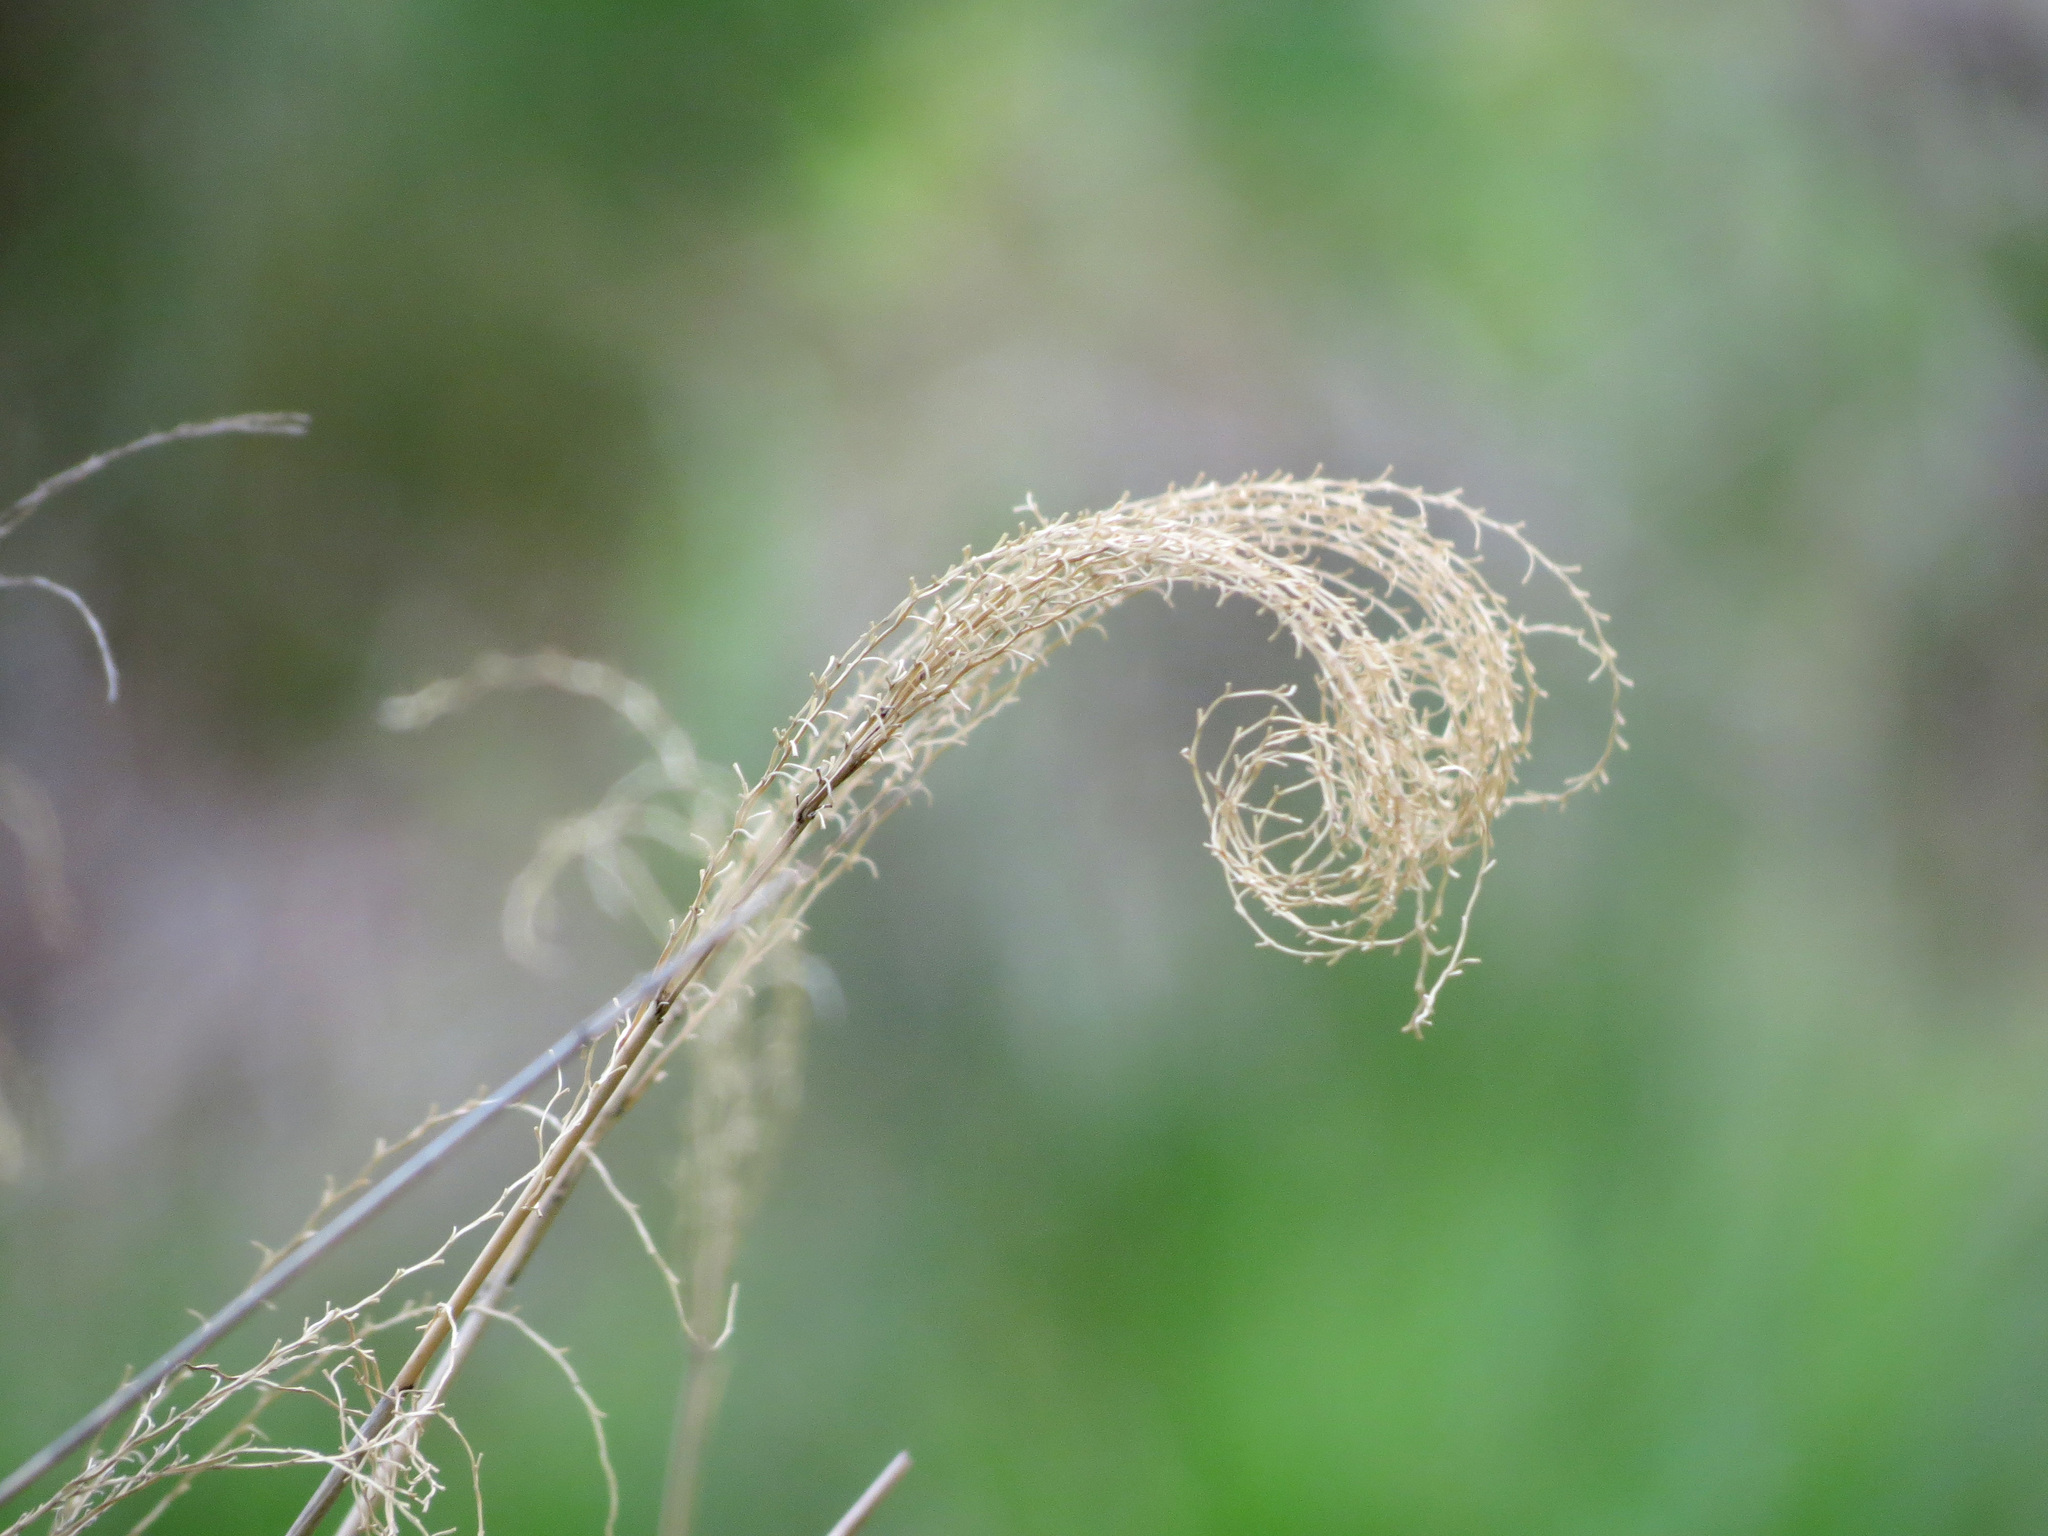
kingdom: Plantae
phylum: Tracheophyta
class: Liliopsida
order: Poales
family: Poaceae
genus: Miscanthus
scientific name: Miscanthus sinensis
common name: Chinese silvergrass
